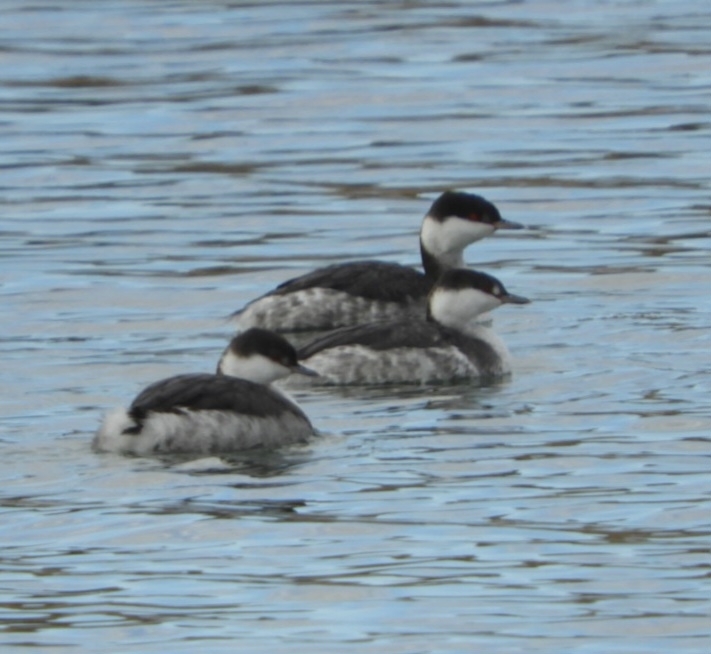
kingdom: Animalia
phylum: Chordata
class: Aves
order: Podicipediformes
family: Podicipedidae
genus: Podiceps
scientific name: Podiceps auritus
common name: Horned grebe
